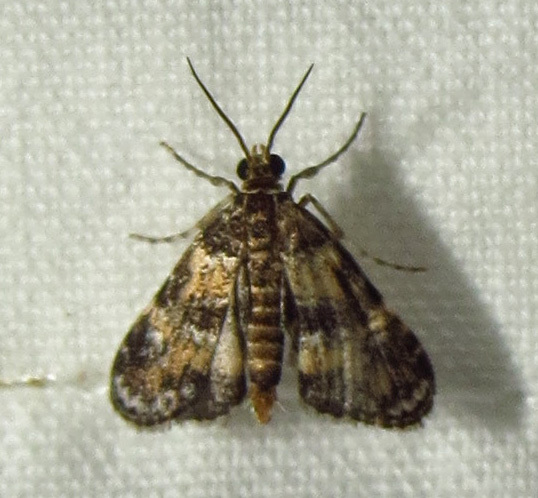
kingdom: Animalia
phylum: Arthropoda
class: Insecta
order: Lepidoptera
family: Crambidae
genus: Elophila
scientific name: Elophila obliteralis
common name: Waterlily leafcutter moth
